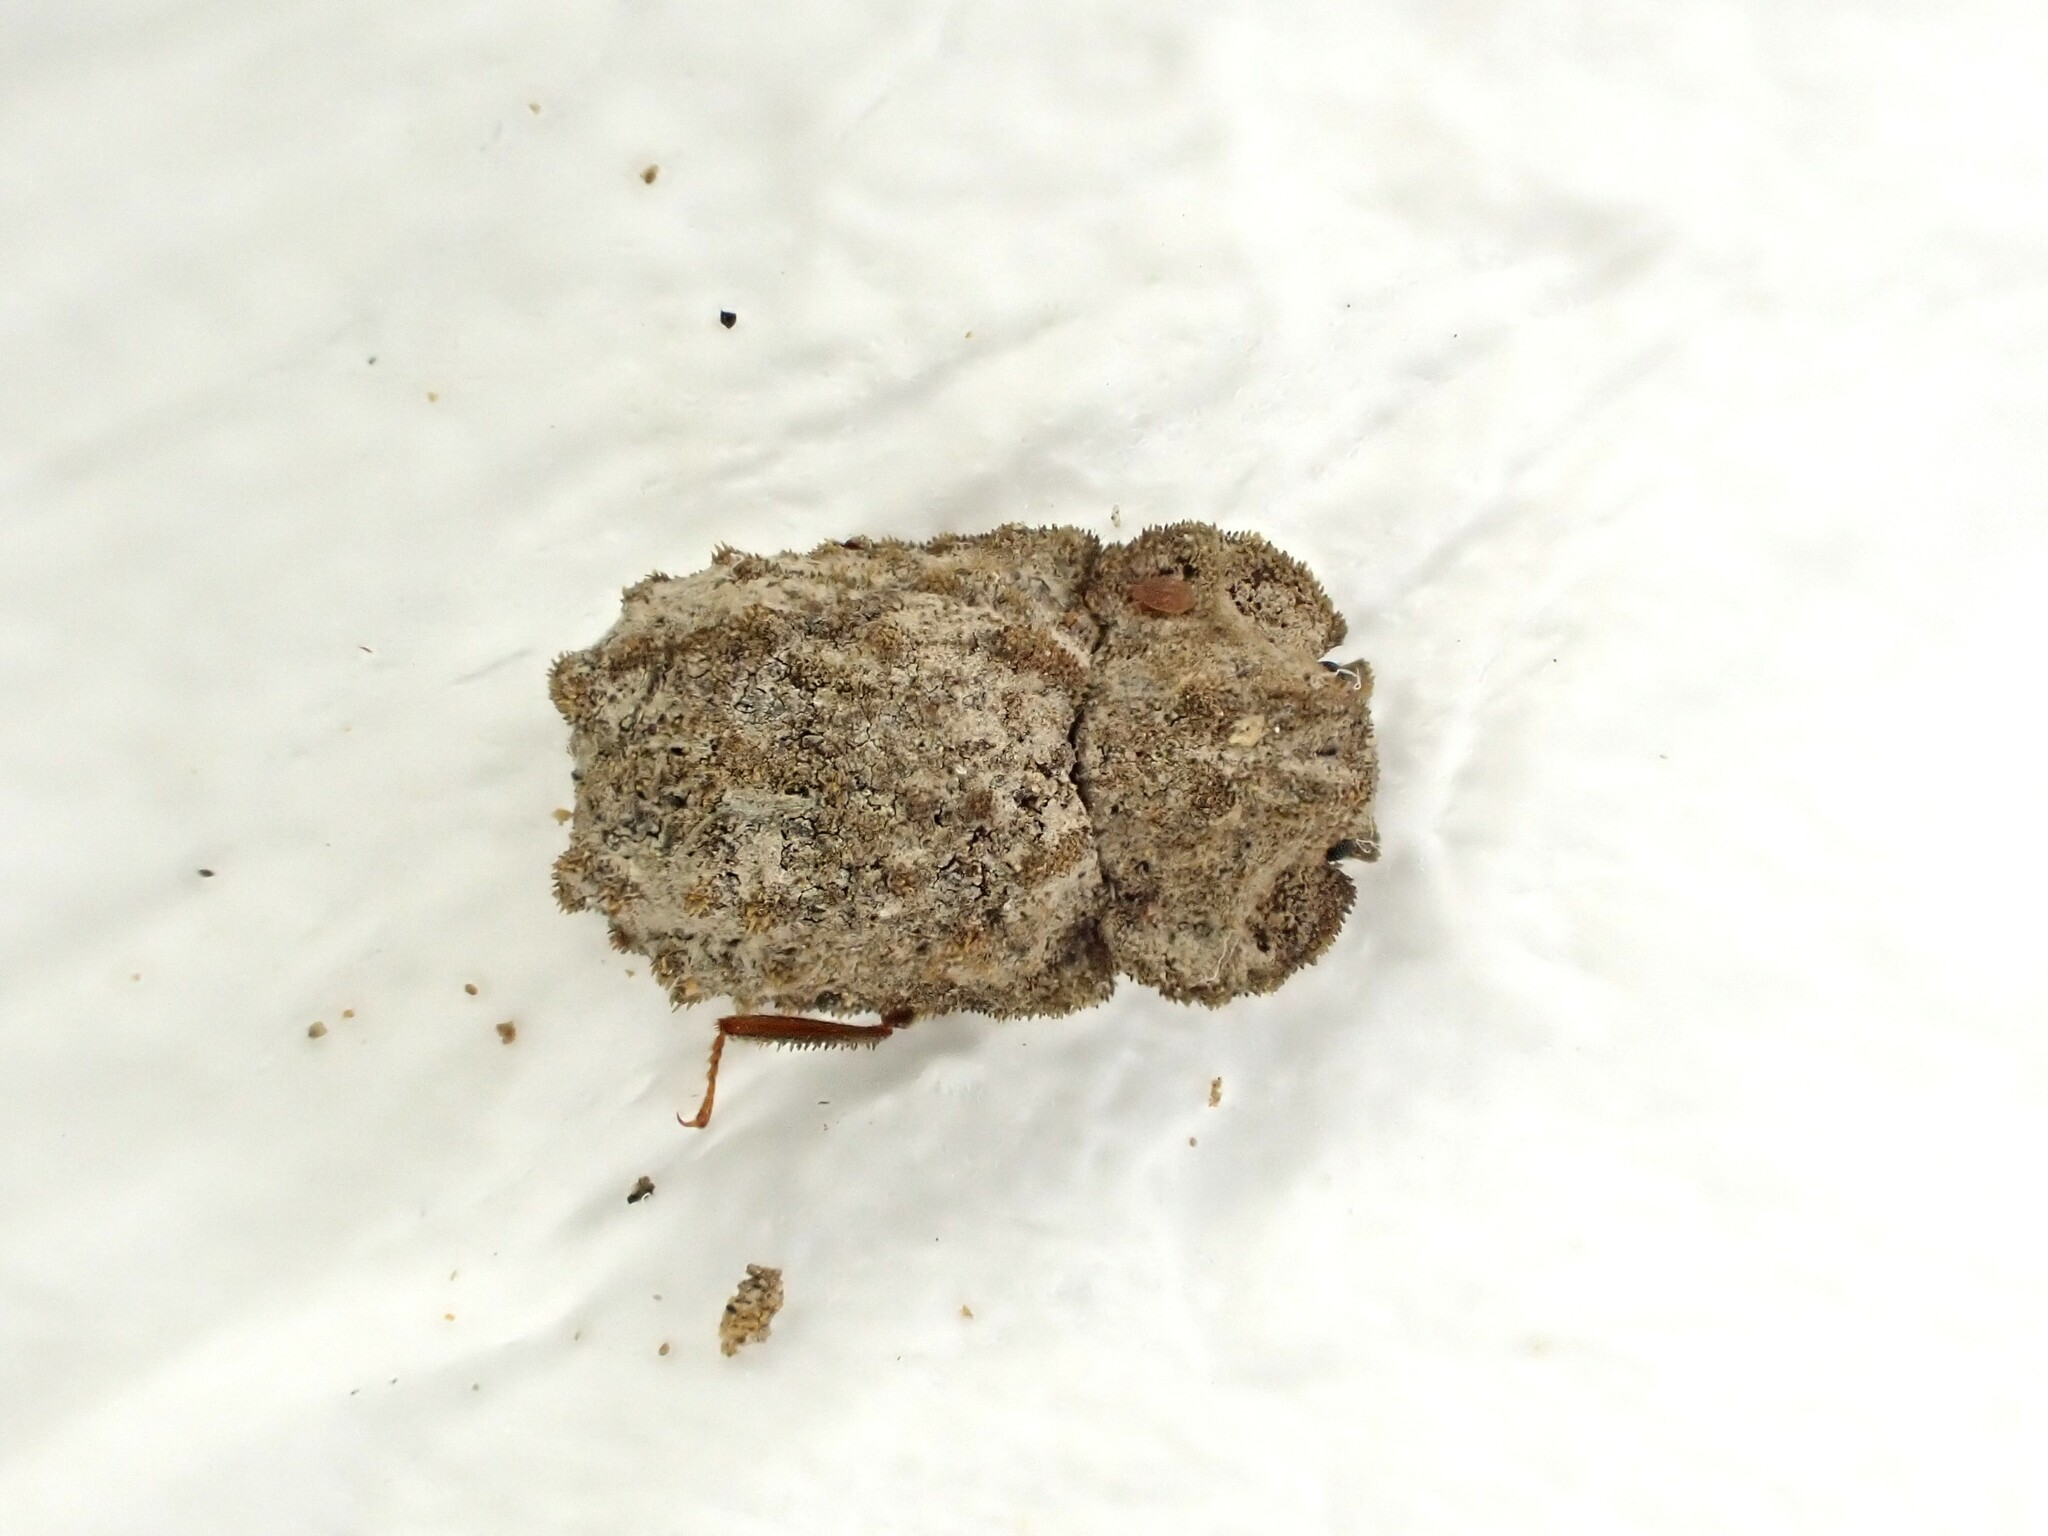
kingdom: Animalia
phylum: Arthropoda
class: Insecta
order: Coleoptera
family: Zopheridae
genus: Pristoderus
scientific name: Pristoderus
